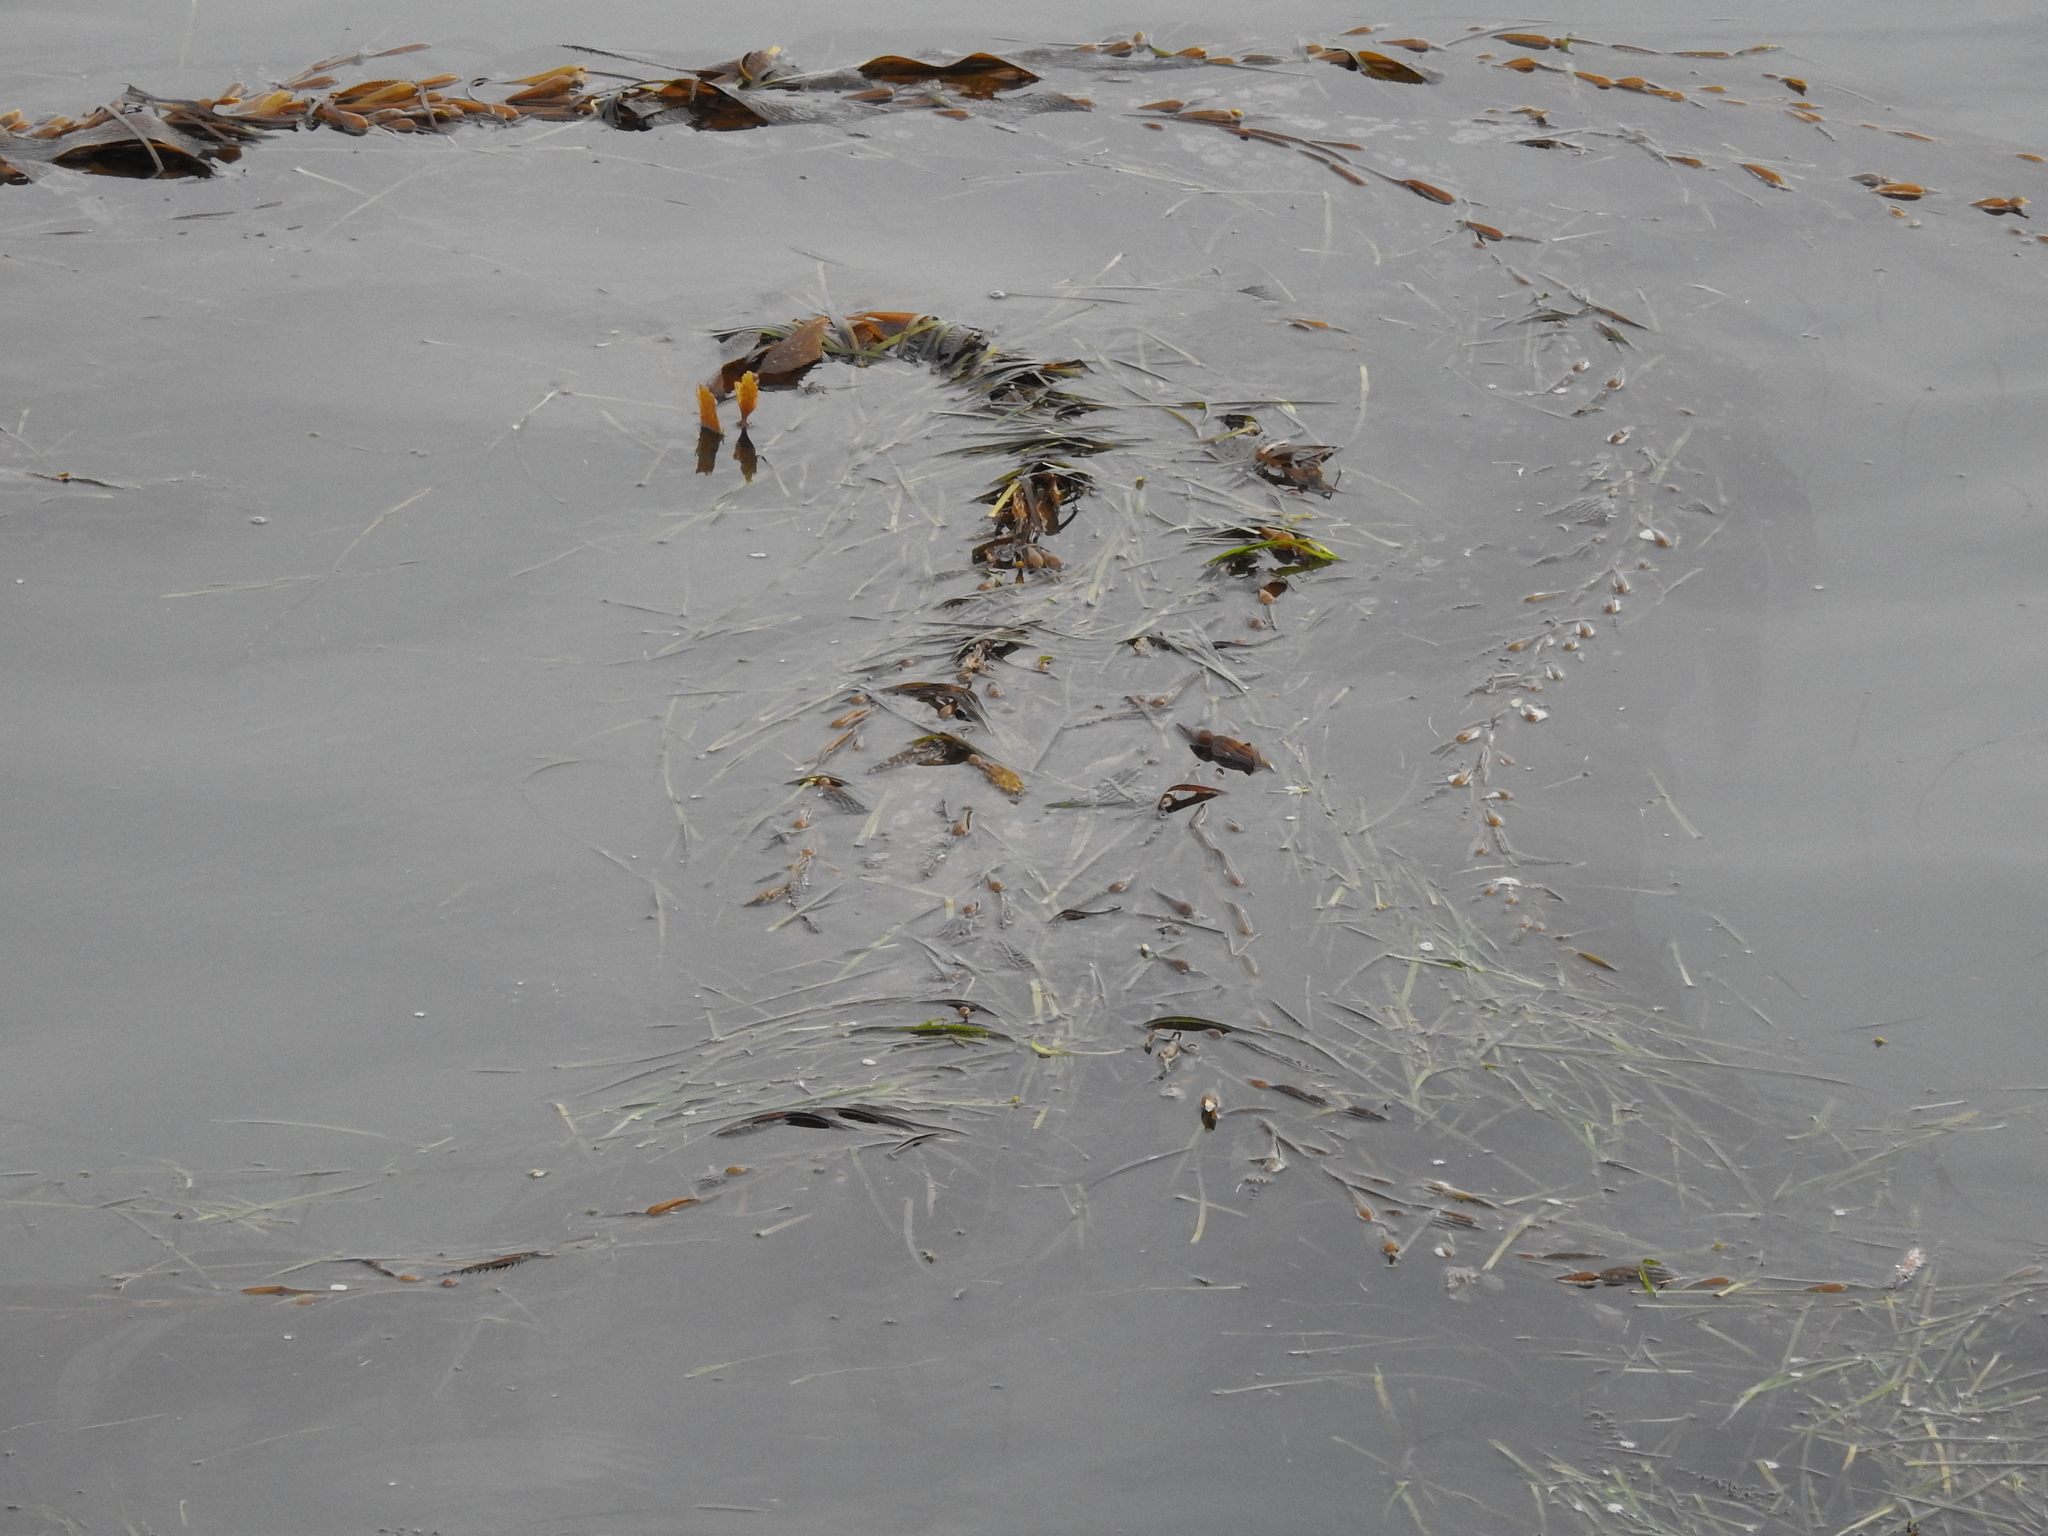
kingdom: Chromista
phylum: Ochrophyta
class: Phaeophyceae
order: Laminariales
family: Laminariaceae
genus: Macrocystis
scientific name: Macrocystis pyrifera
